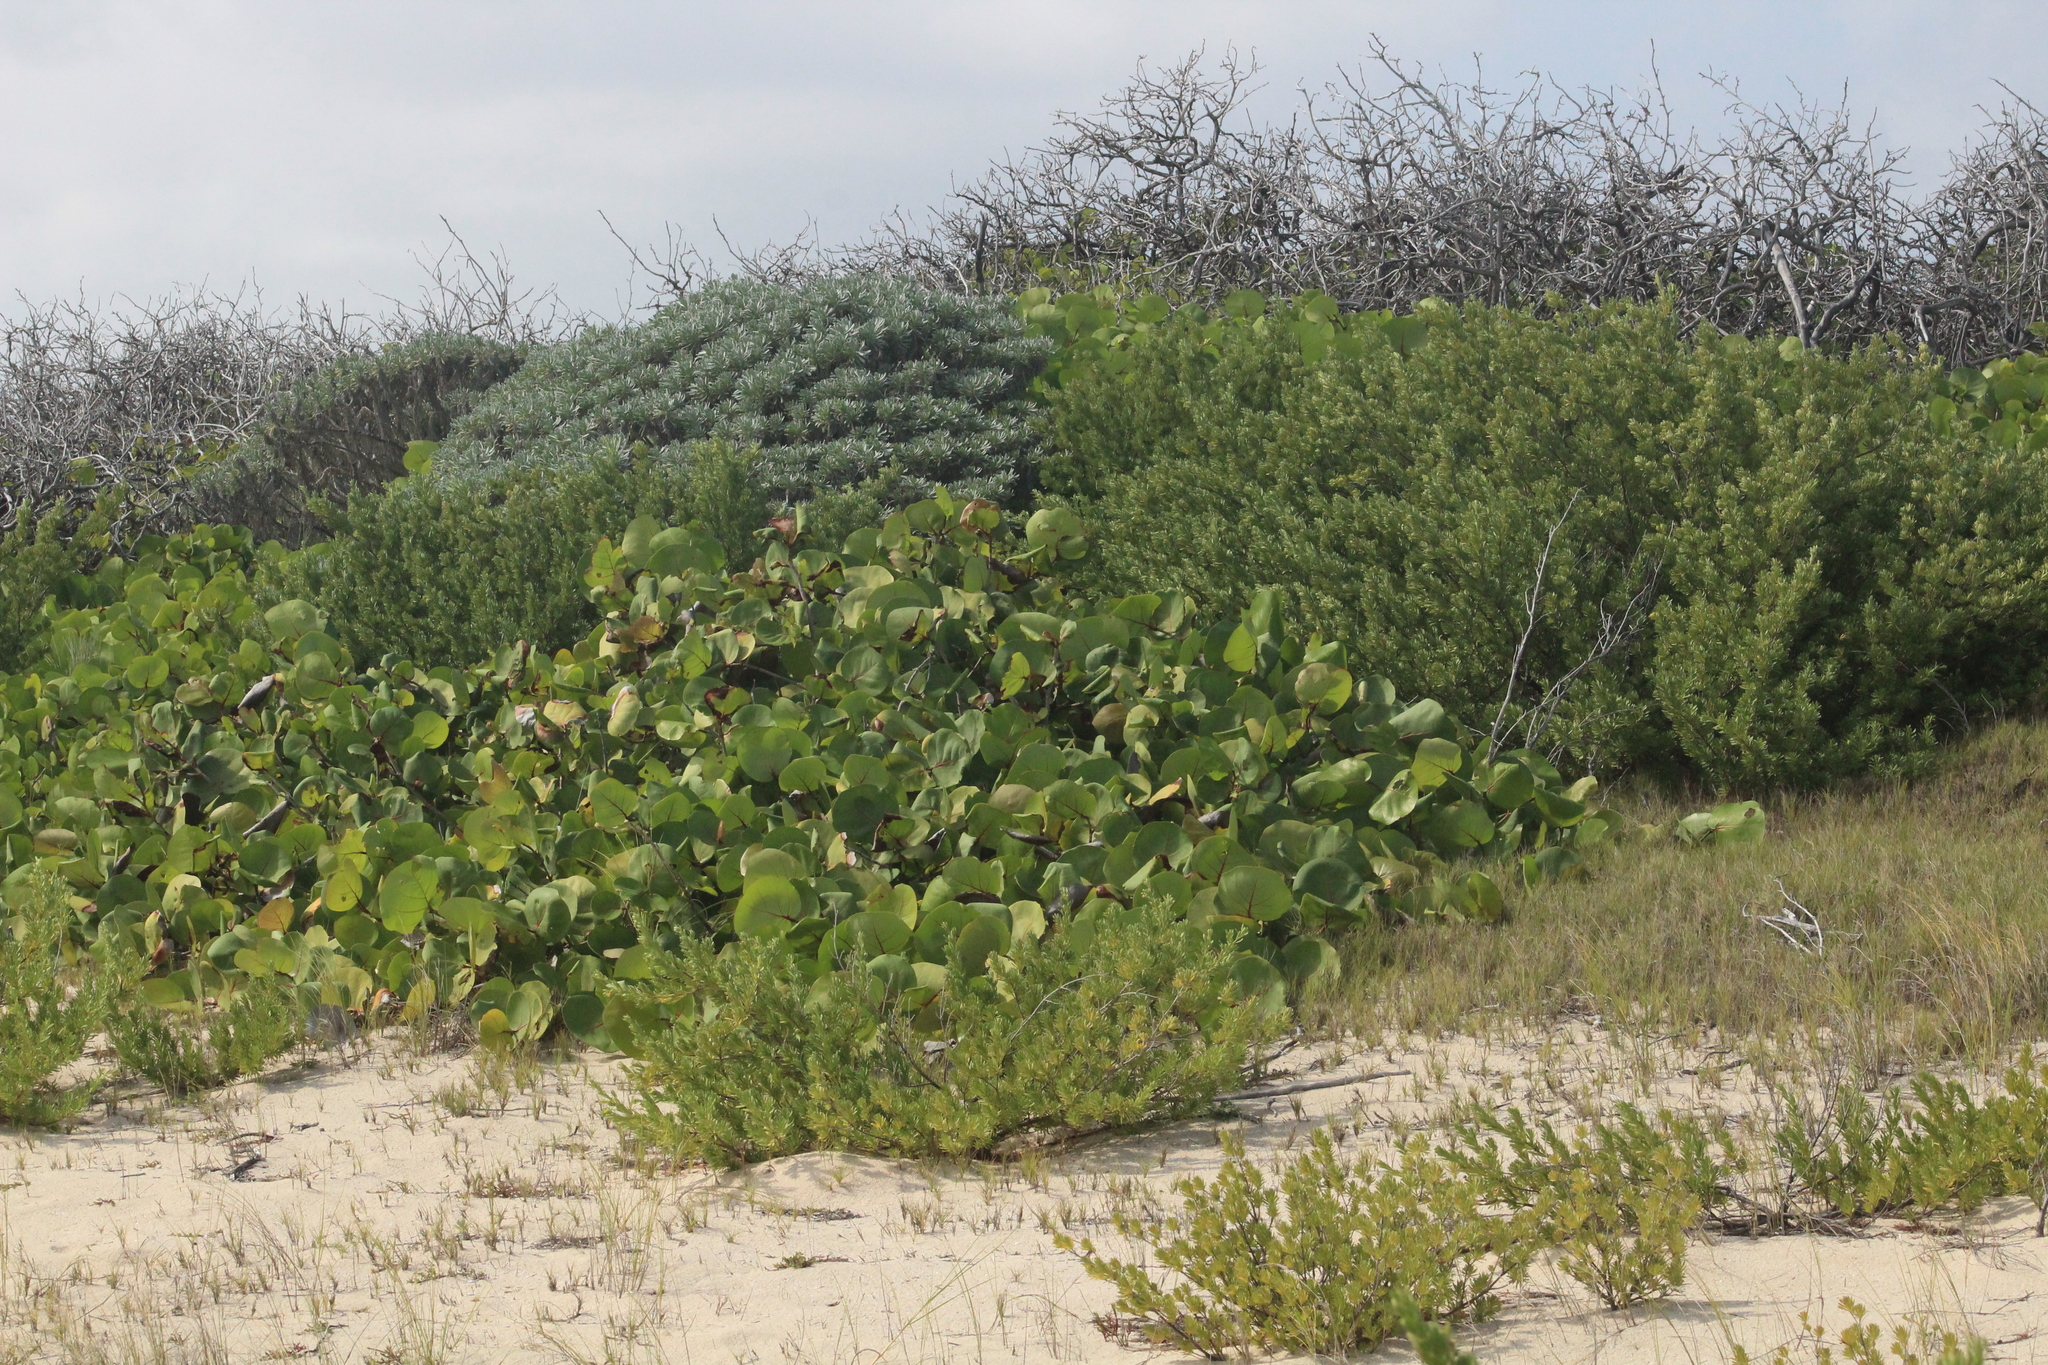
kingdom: Plantae
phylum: Tracheophyta
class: Magnoliopsida
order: Caryophyllales
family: Polygonaceae
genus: Coccoloba
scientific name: Coccoloba uvifera
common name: Seagrape
